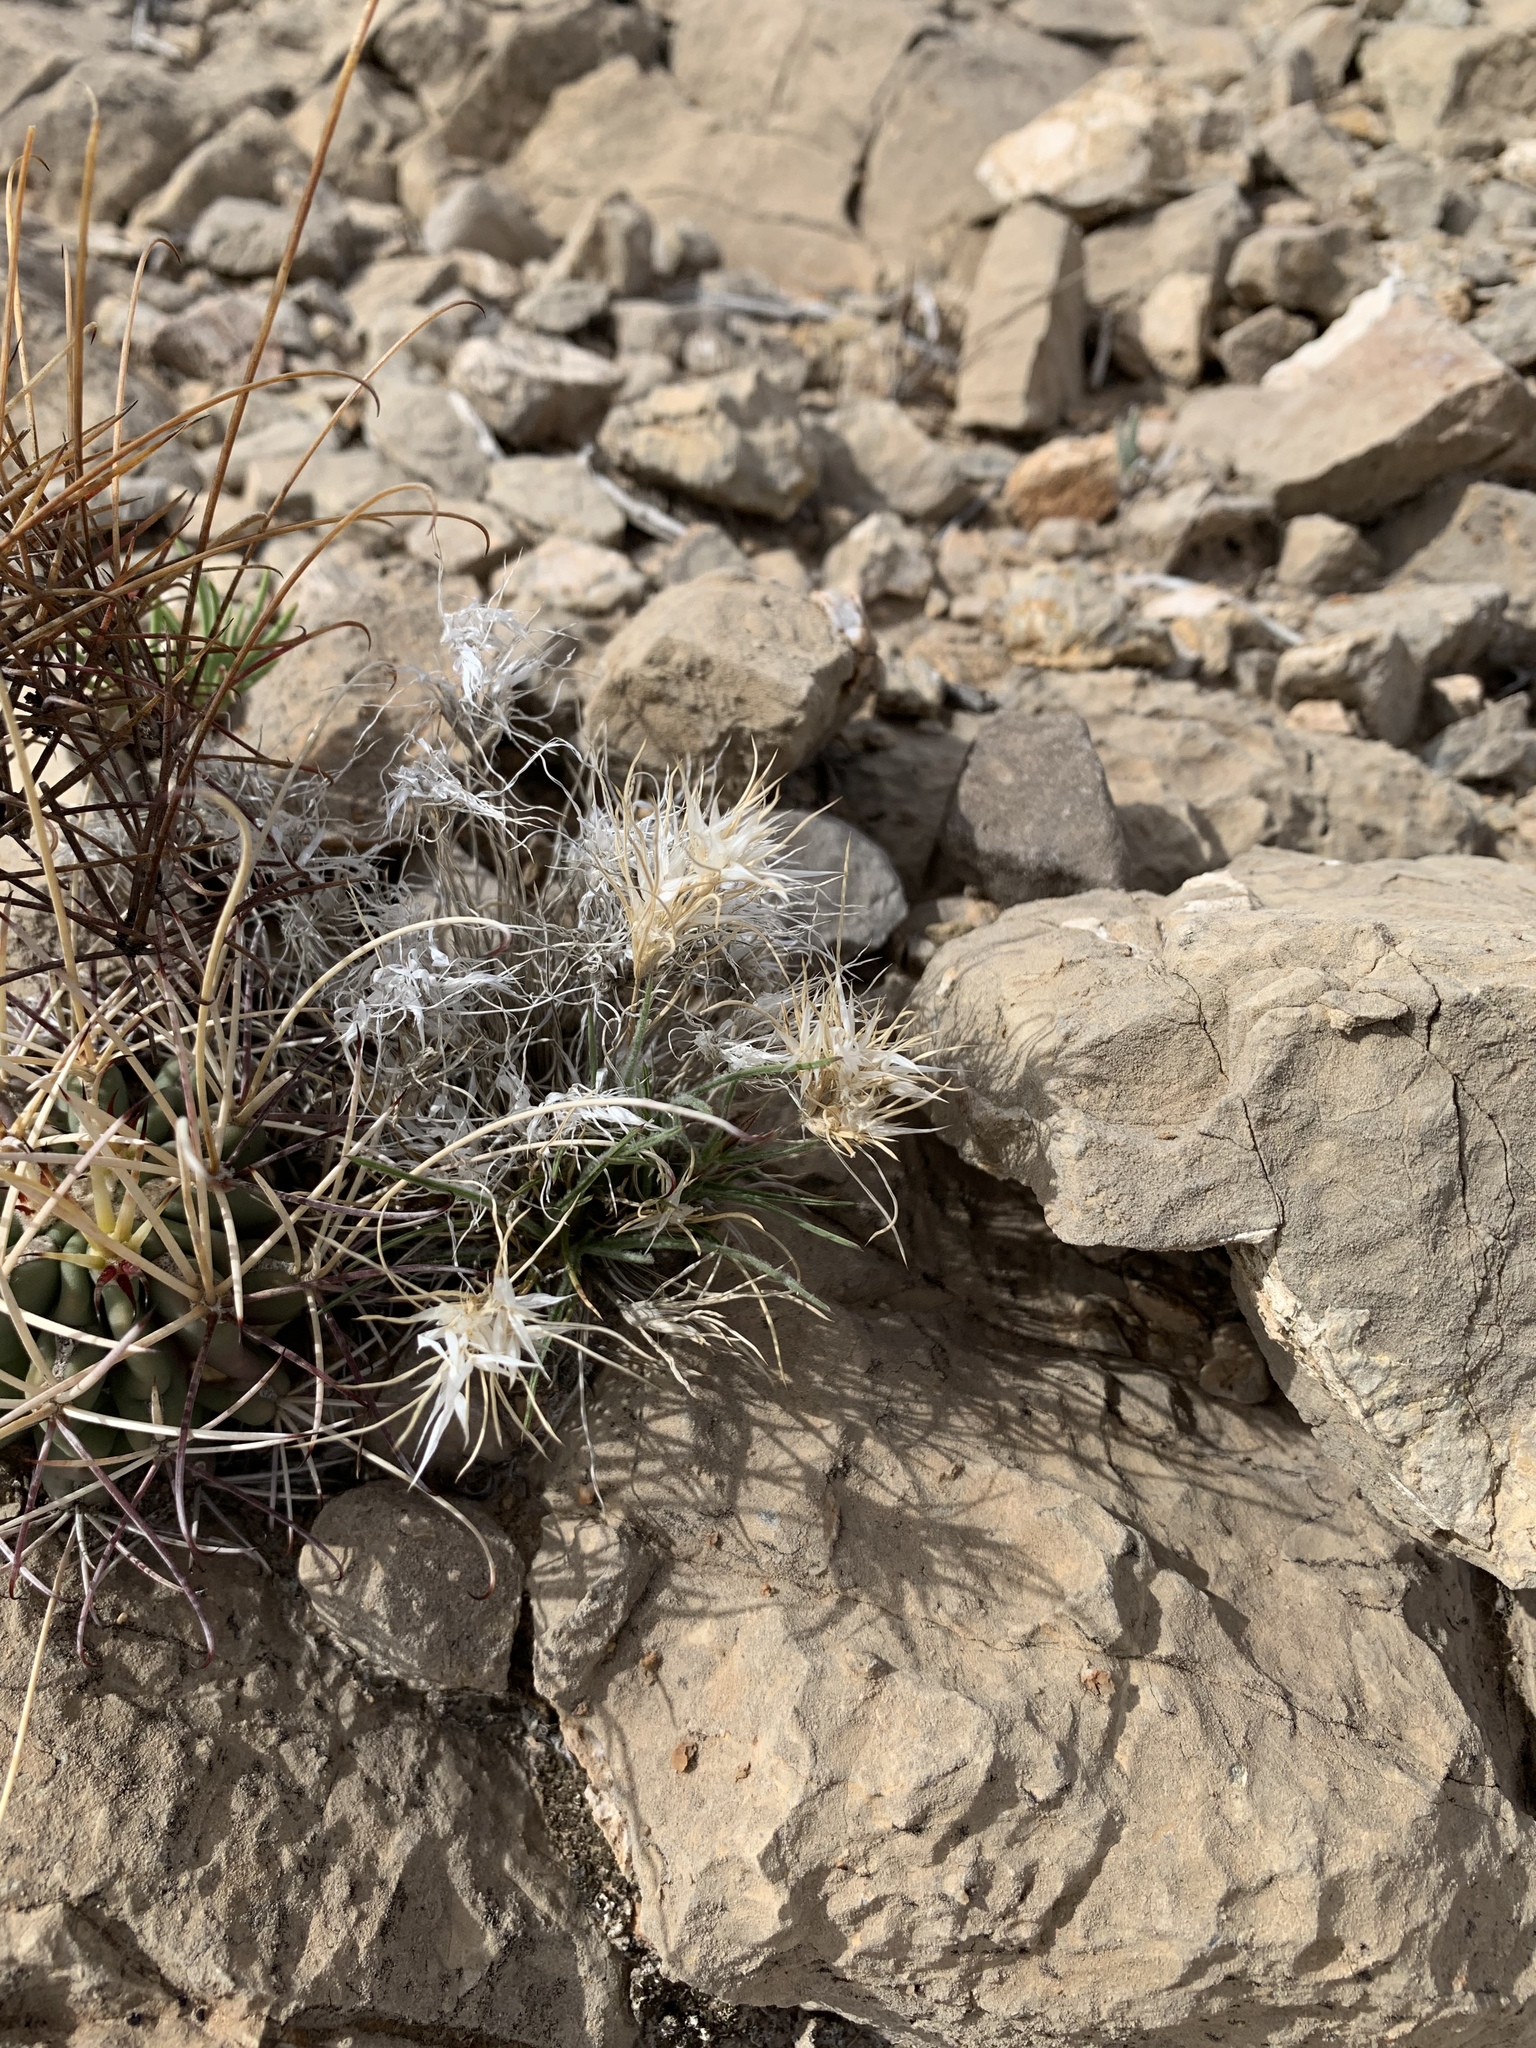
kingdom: Plantae
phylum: Tracheophyta
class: Liliopsida
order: Poales
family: Poaceae
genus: Dasyochloa
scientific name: Dasyochloa pulchella
